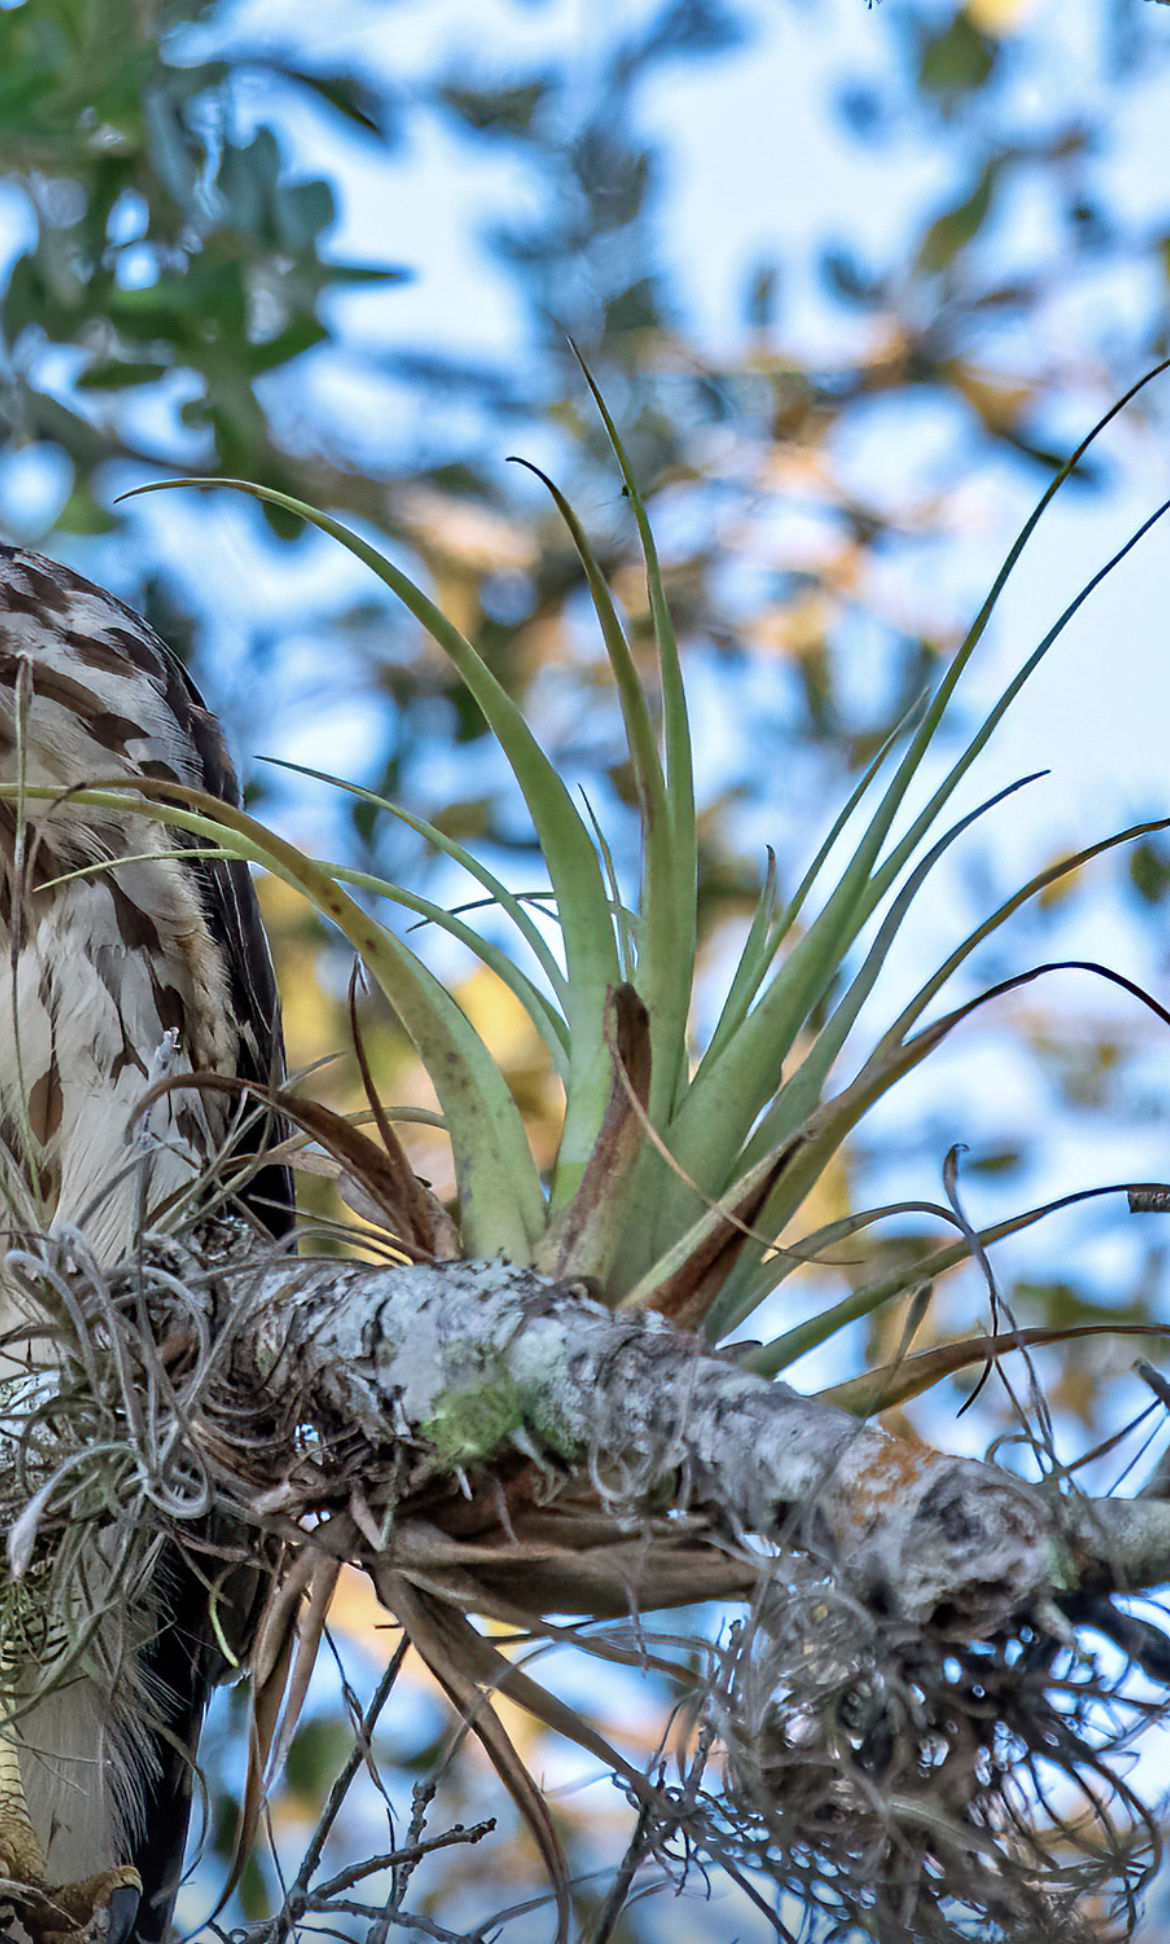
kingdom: Plantae
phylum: Tracheophyta
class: Liliopsida
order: Poales
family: Bromeliaceae
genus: Tillandsia
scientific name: Tillandsia utriculata
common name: Wild pine
